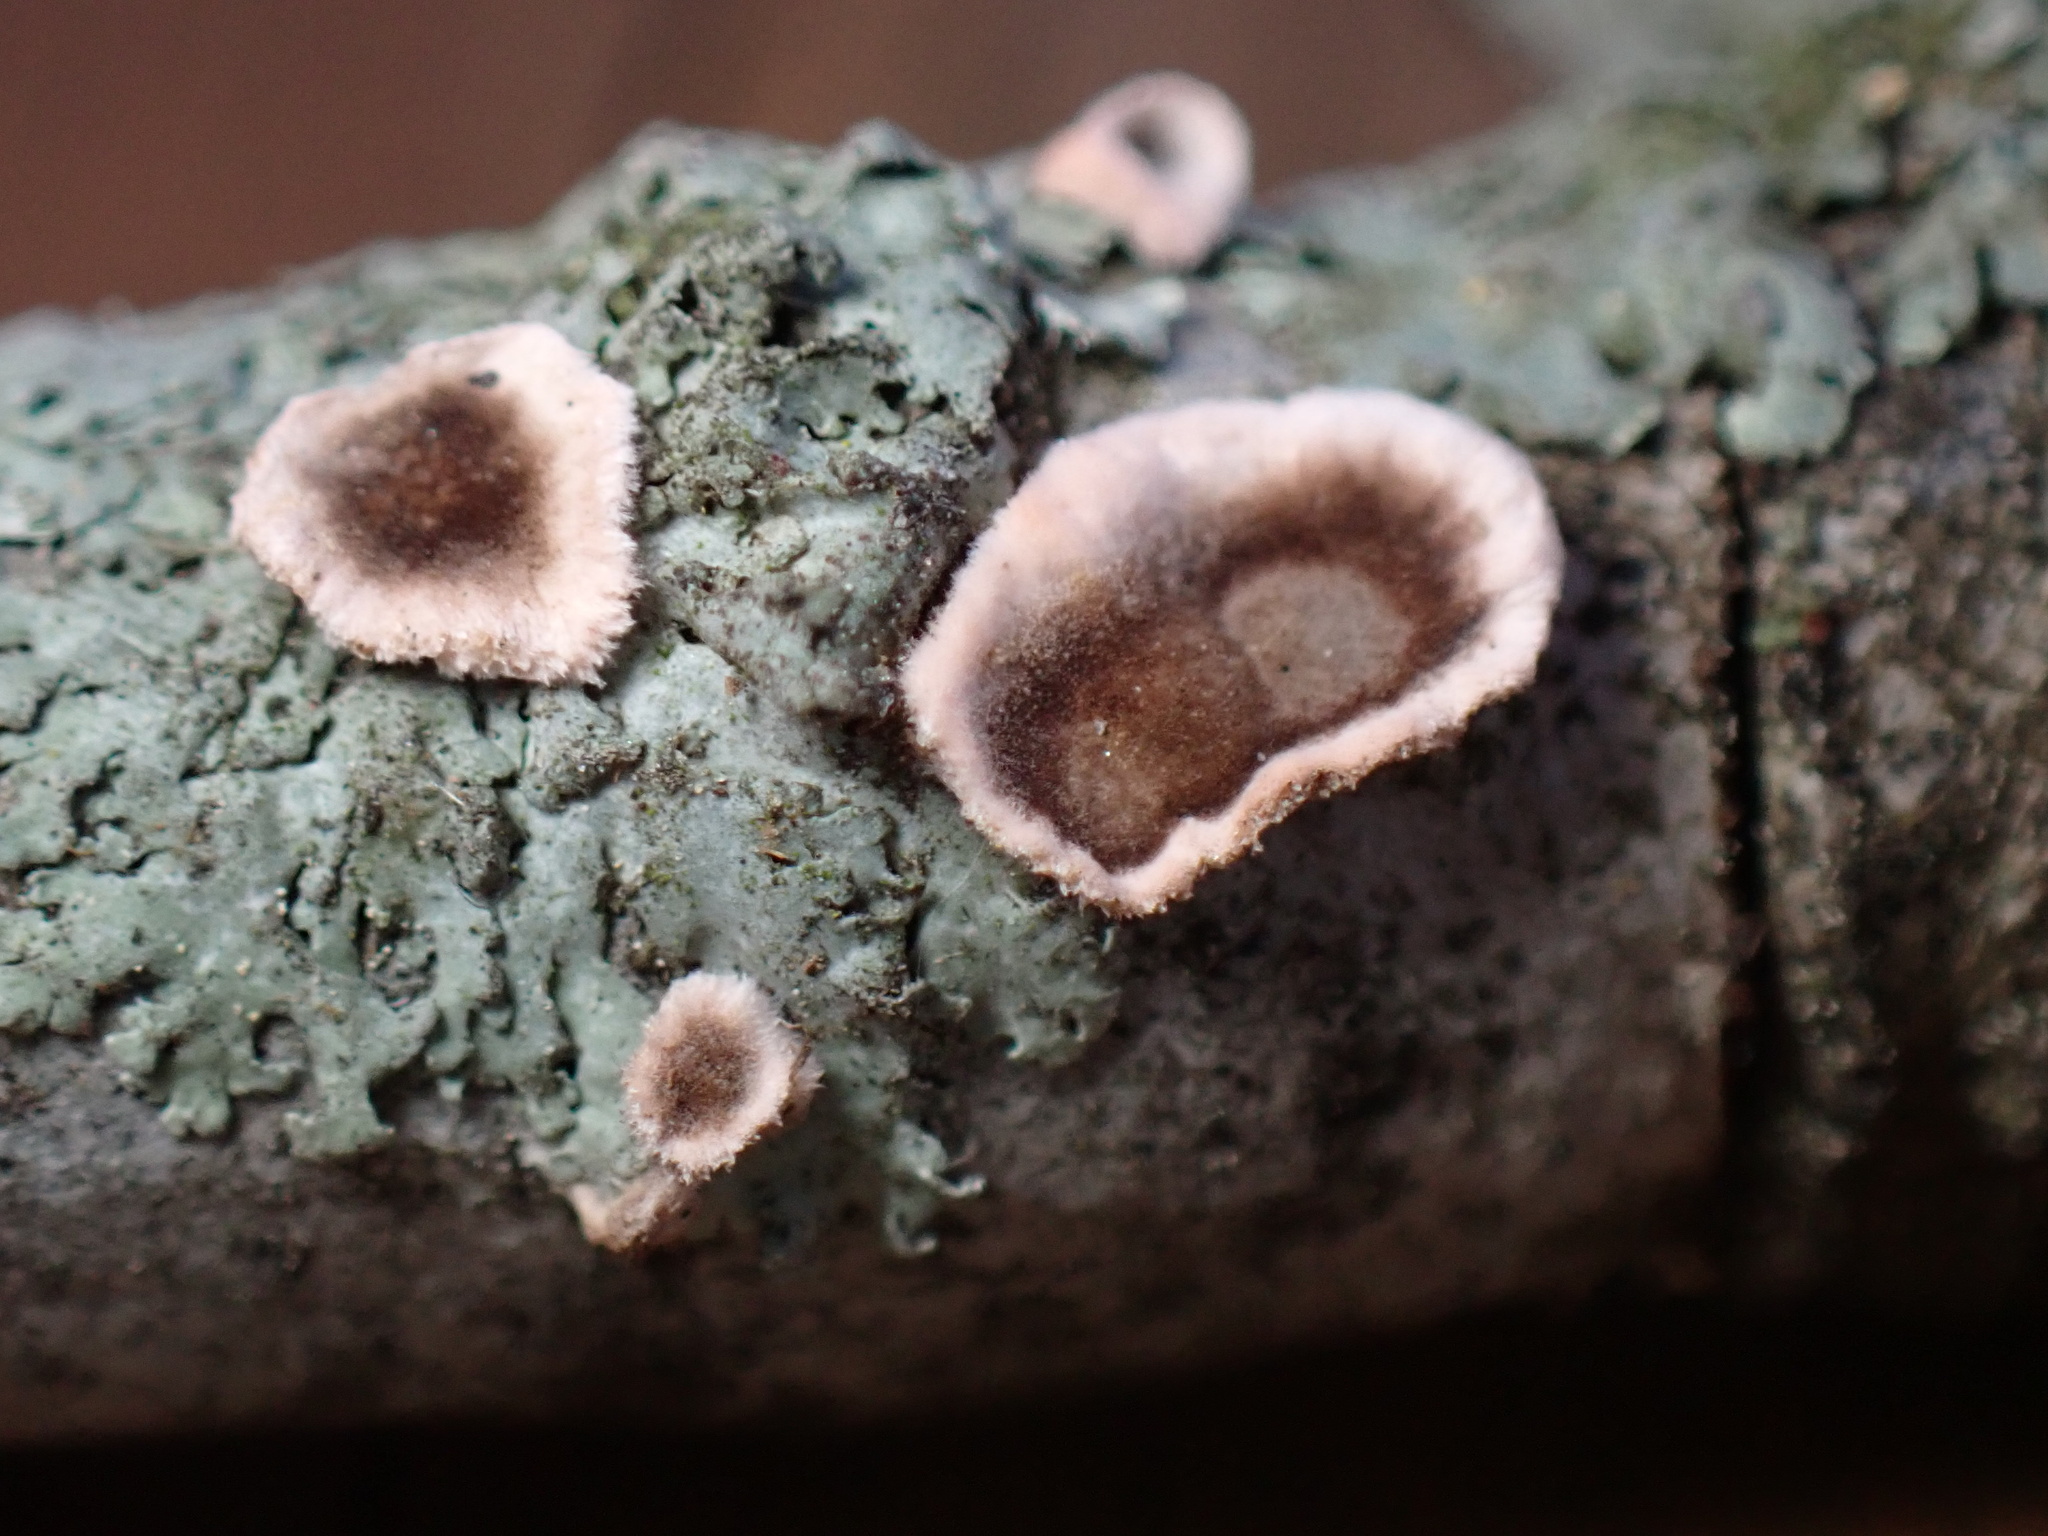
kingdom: Fungi
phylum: Basidiomycota
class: Agaricomycetes
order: Russulales
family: Peniophoraceae
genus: Peniophora
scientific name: Peniophora albobadia
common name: Giraffe spots
